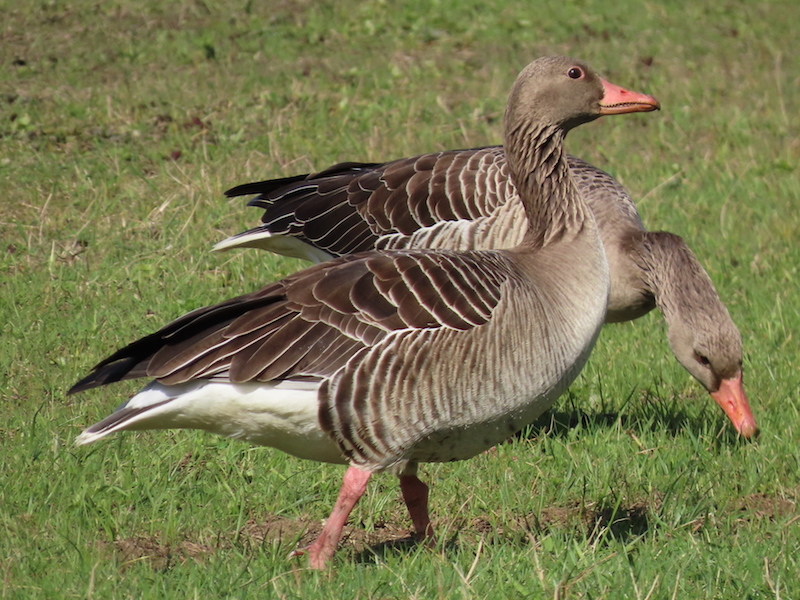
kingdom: Animalia
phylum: Chordata
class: Aves
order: Anseriformes
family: Anatidae
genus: Anser
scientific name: Anser anser
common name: Greylag goose
